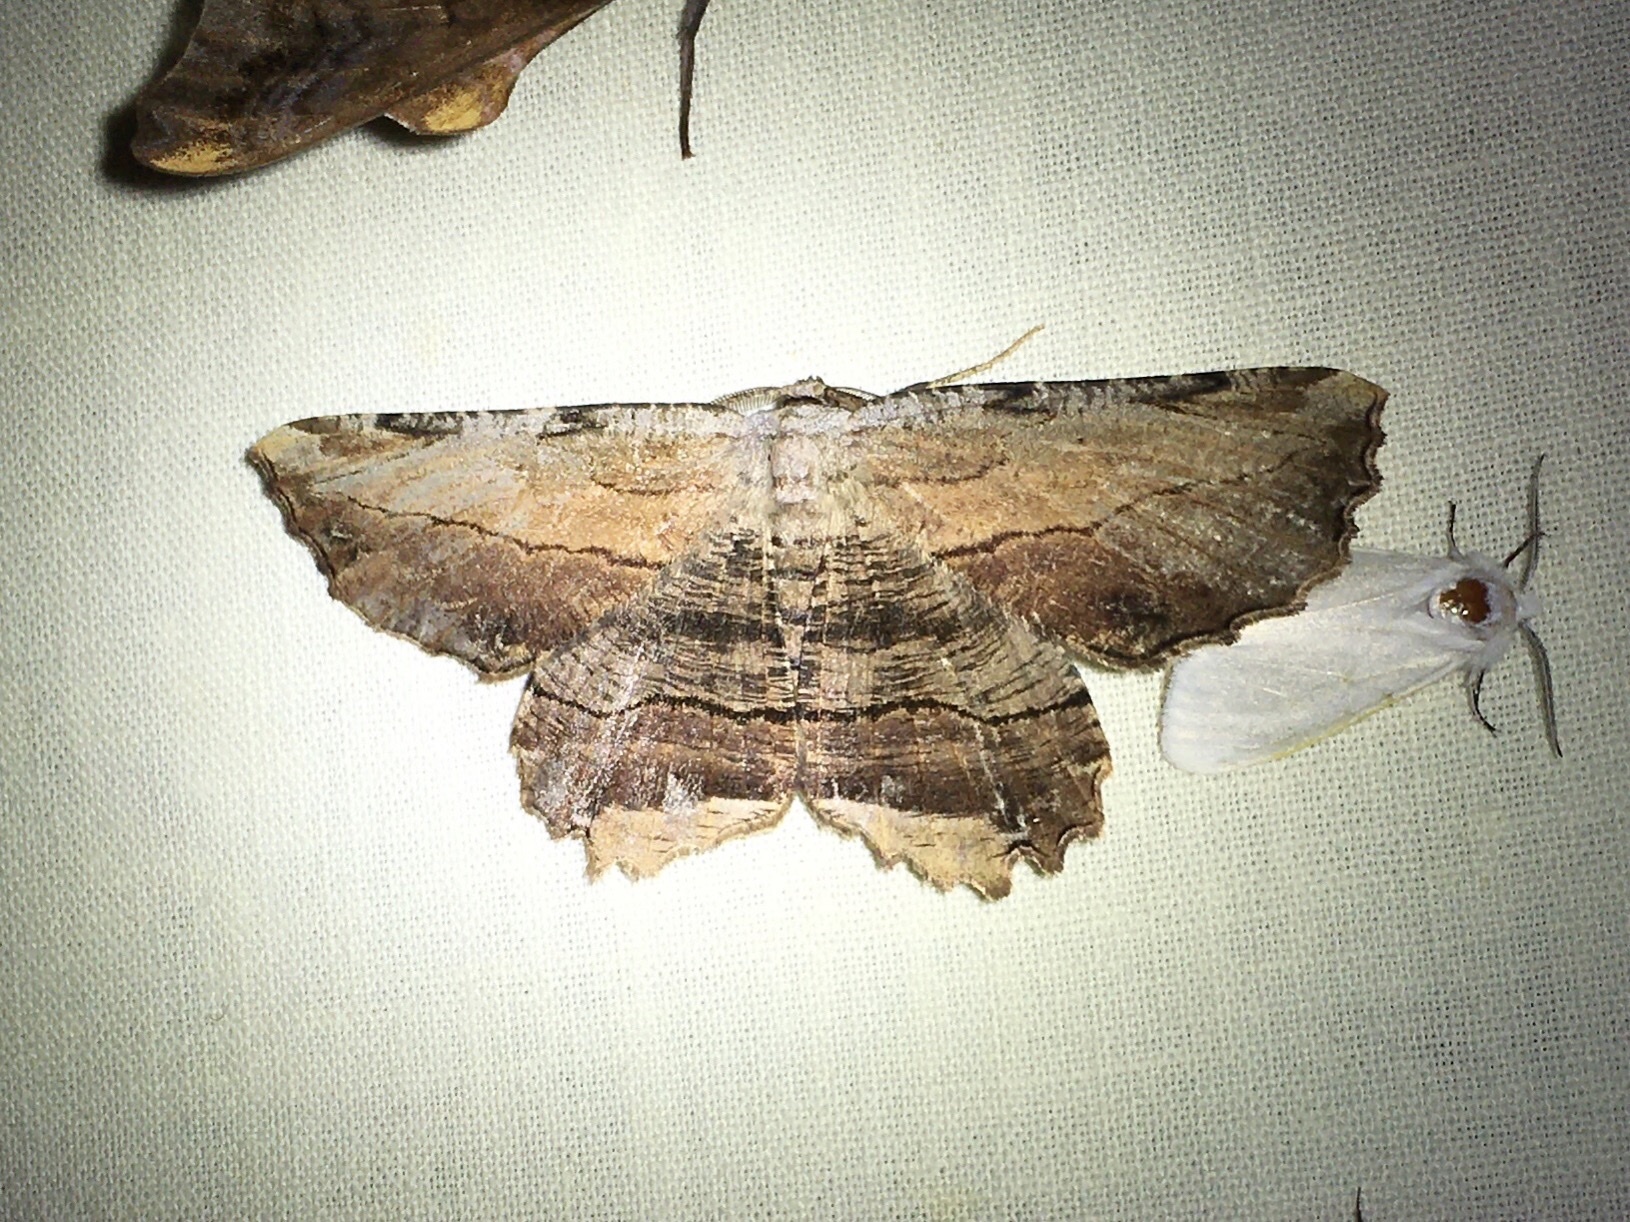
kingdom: Animalia
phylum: Arthropoda
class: Insecta
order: Lepidoptera
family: Geometridae
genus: Lytrosis
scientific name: Lytrosis unitaria
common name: Common lytrosis
